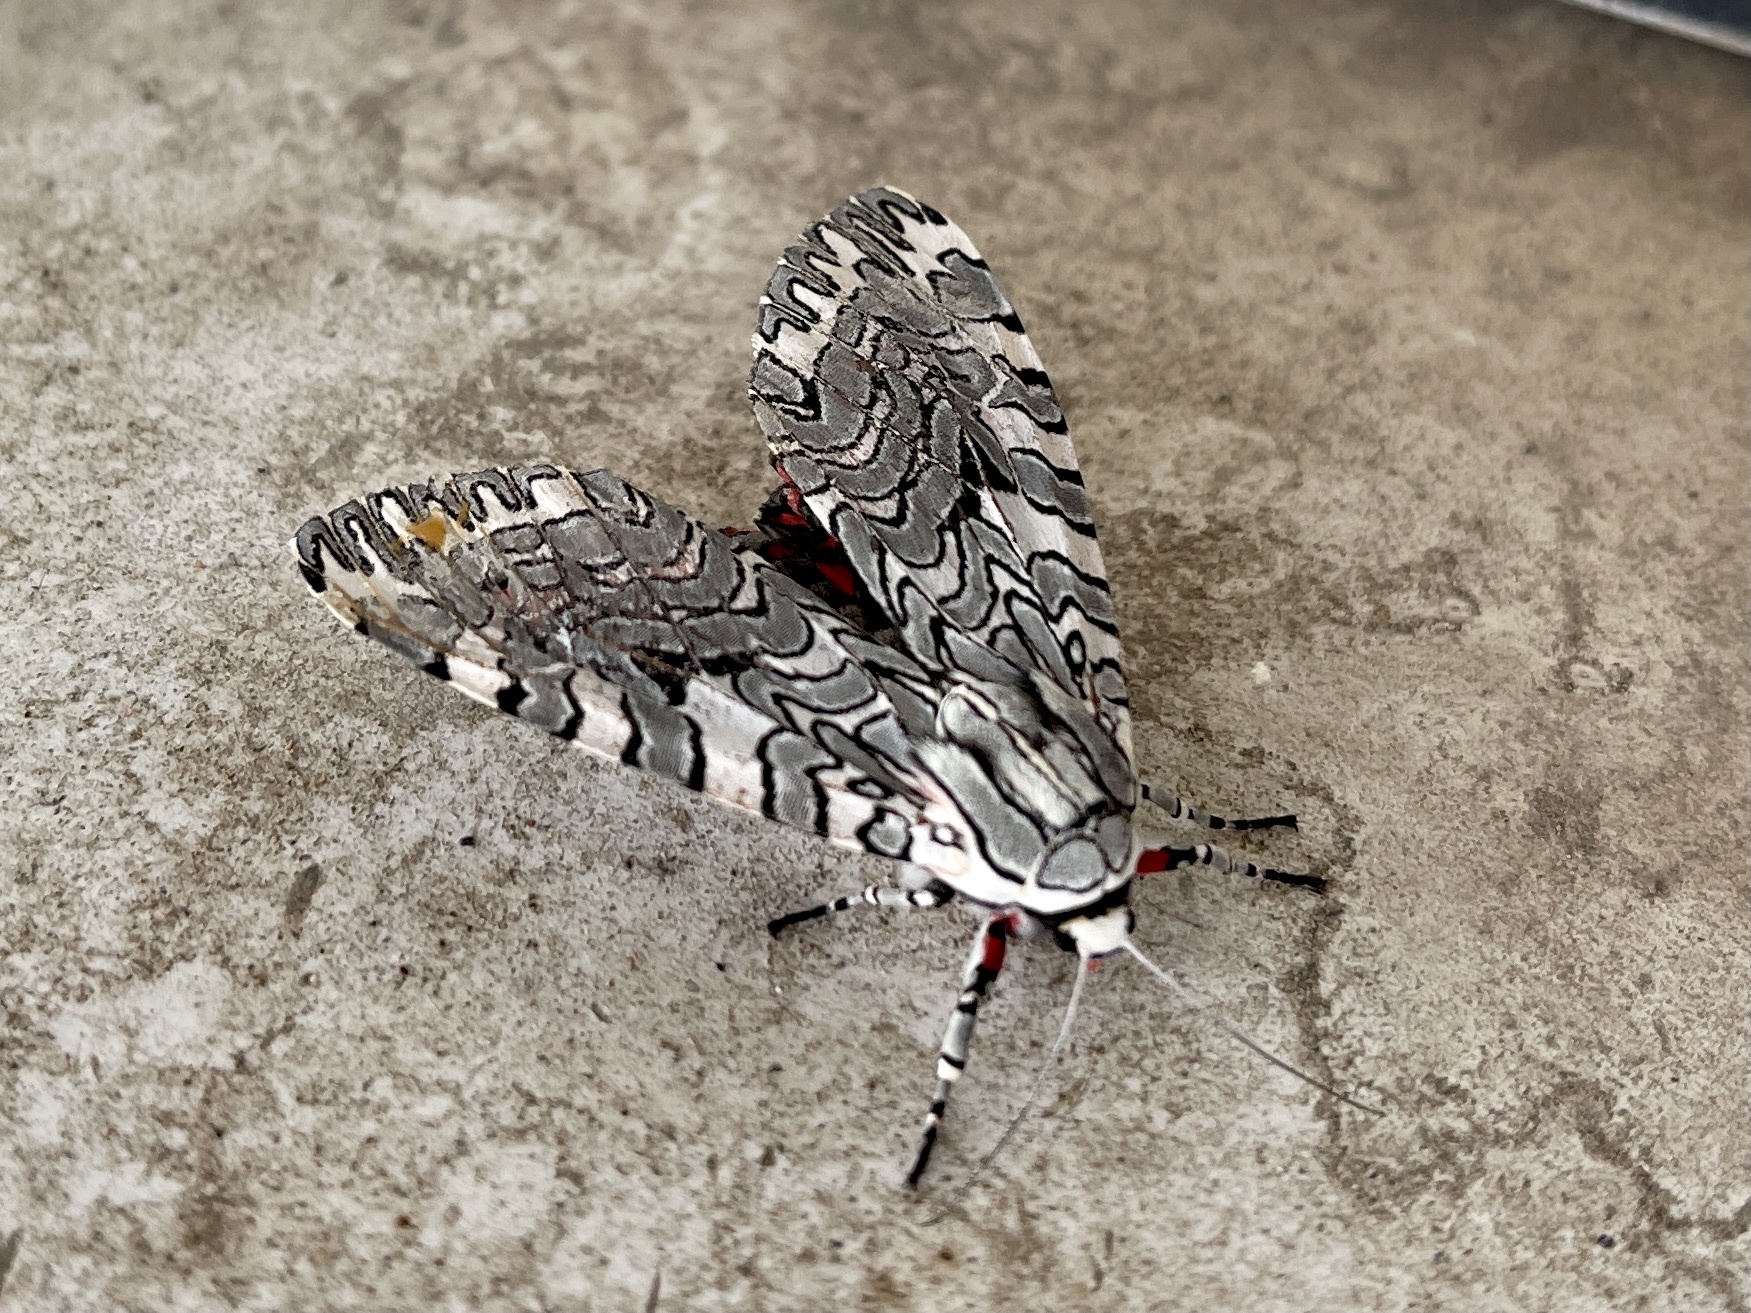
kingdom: Animalia
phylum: Arthropoda
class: Insecta
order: Lepidoptera
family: Erebidae
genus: Arachnis
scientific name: Arachnis picta
